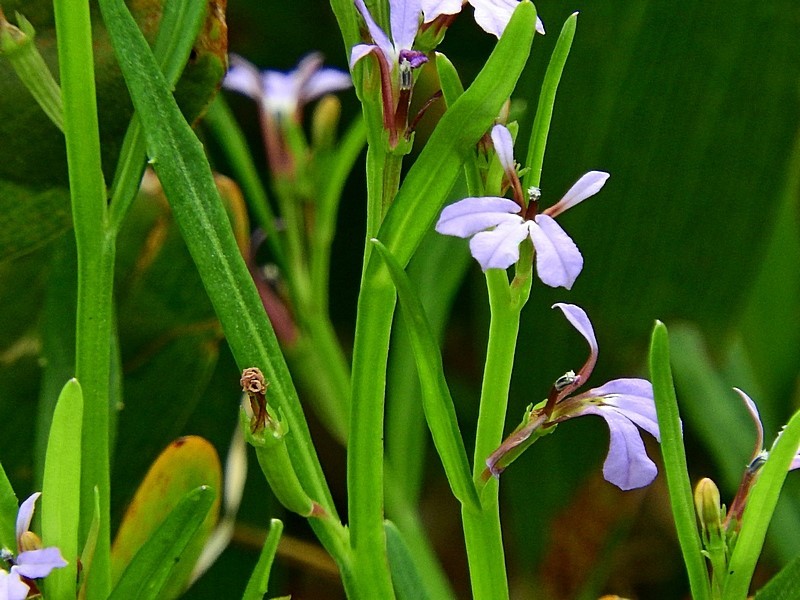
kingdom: Plantae
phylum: Tracheophyta
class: Magnoliopsida
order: Asterales
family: Campanulaceae
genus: Lobelia
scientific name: Lobelia anceps
